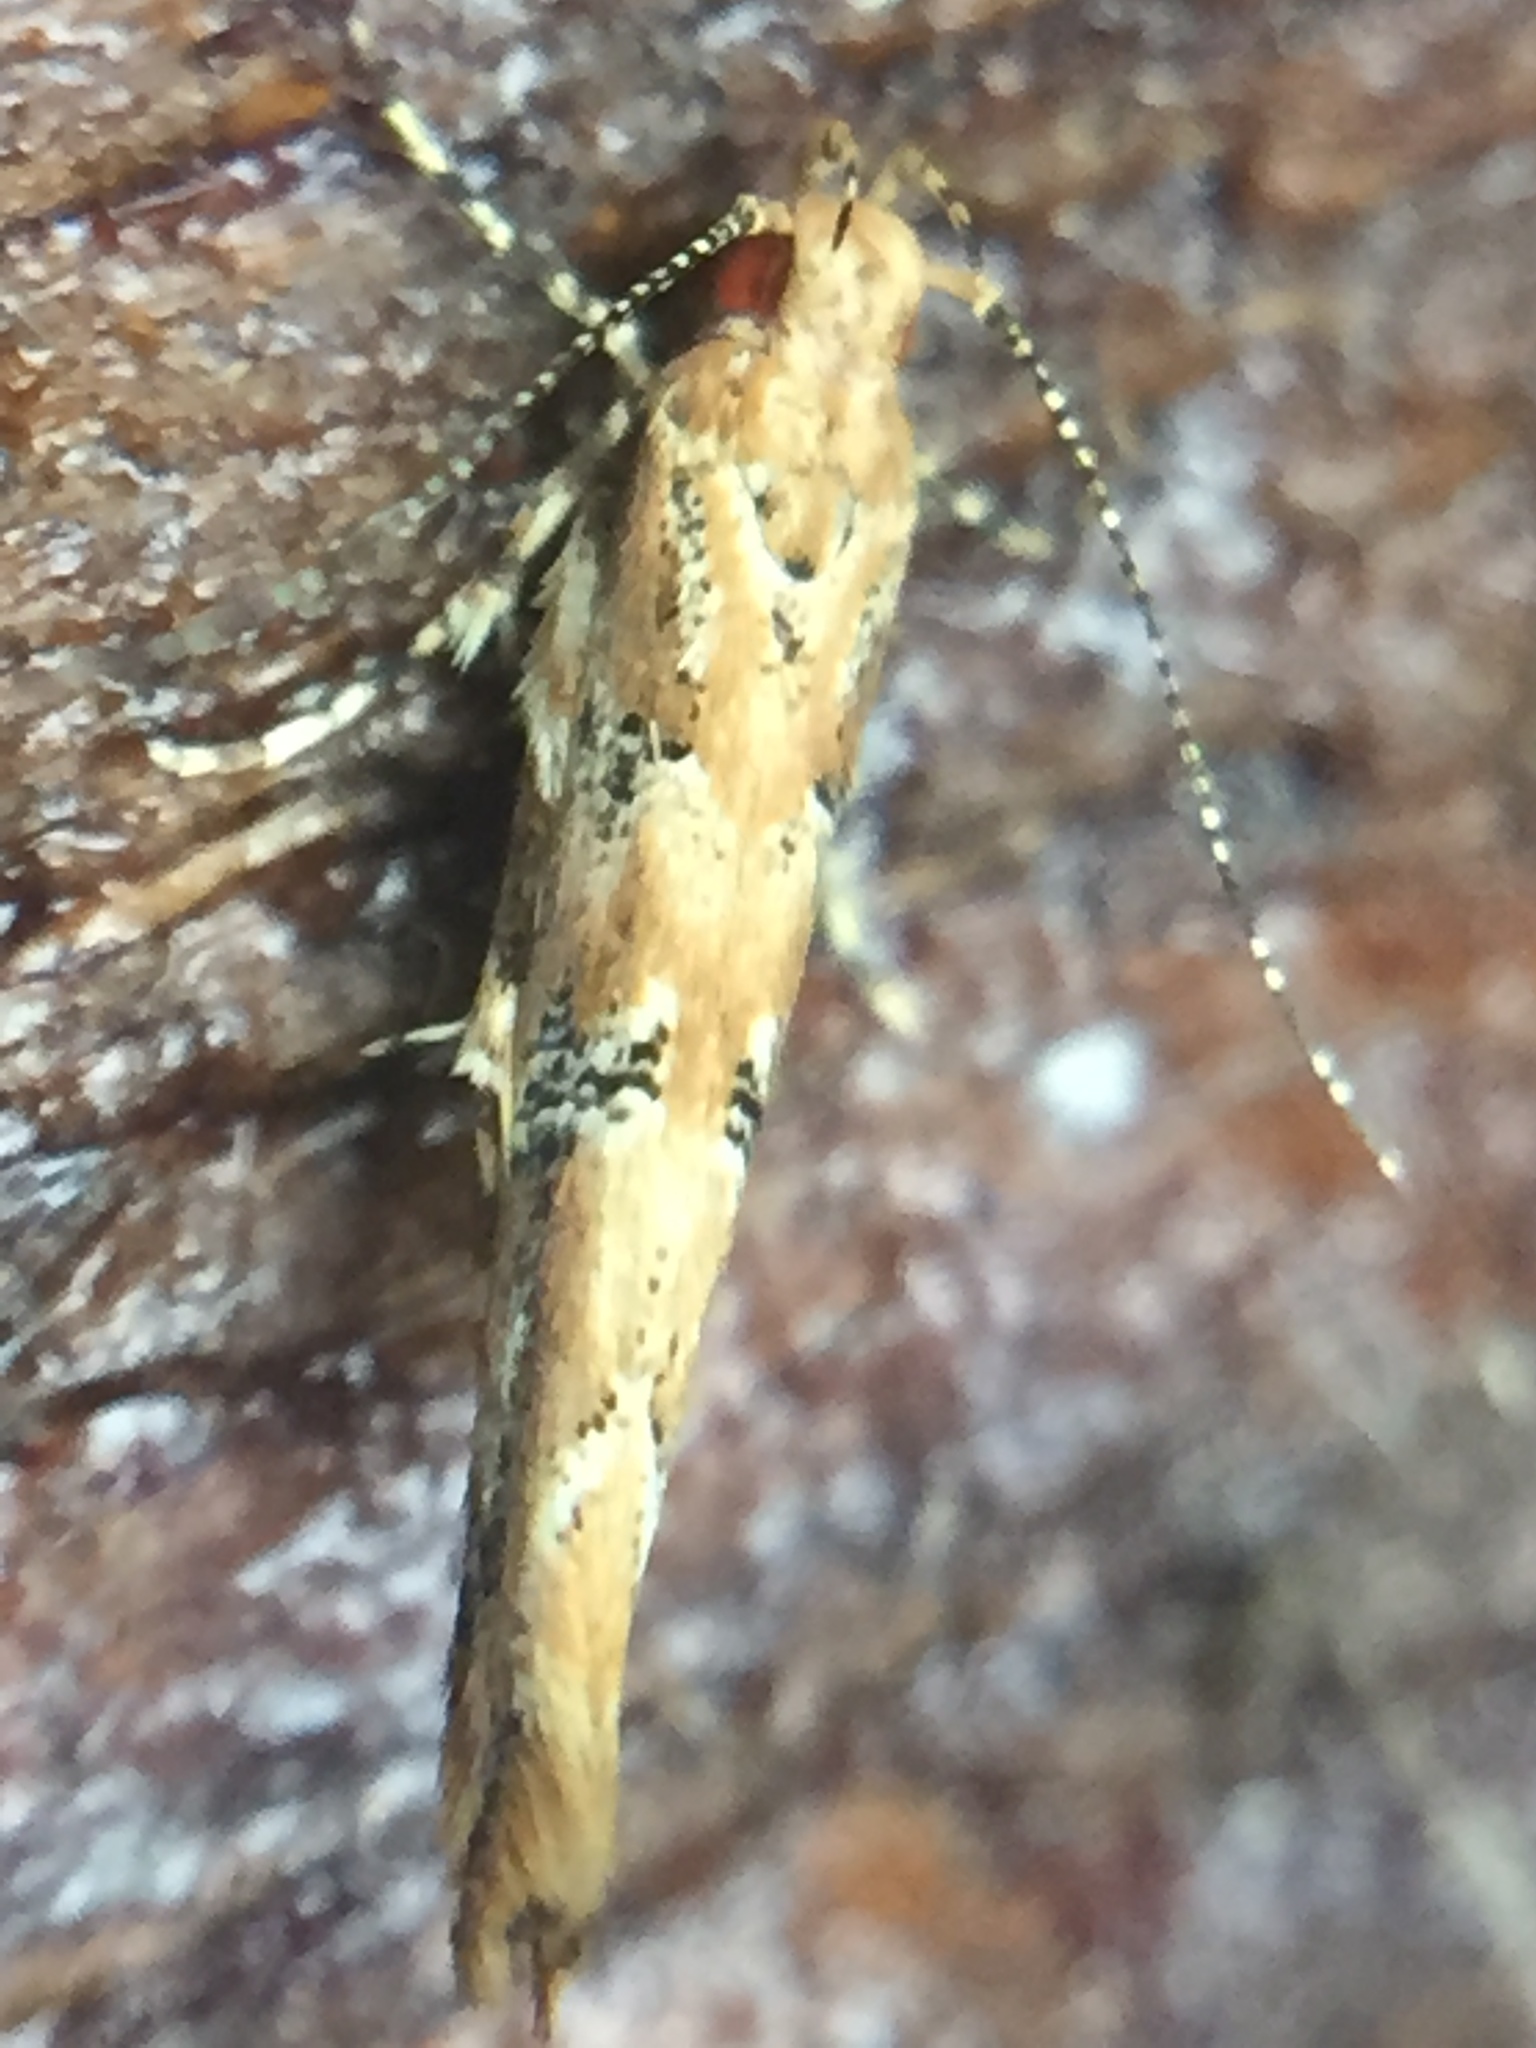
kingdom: Animalia
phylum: Arthropoda
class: Insecta
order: Lepidoptera
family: Cosmopterigidae
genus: Pyroderces
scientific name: Pyroderces aellotricha
